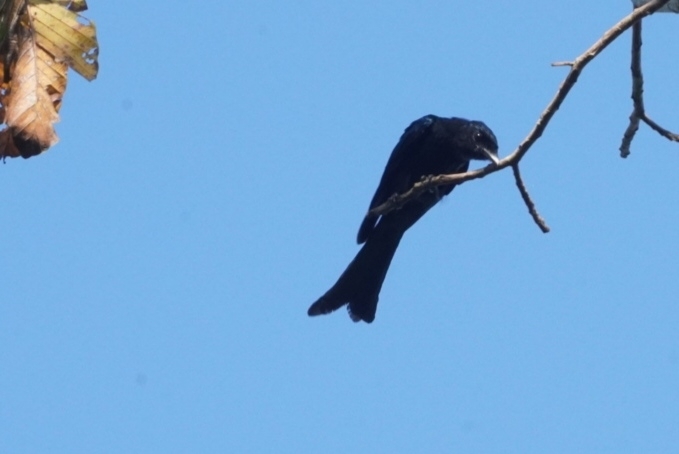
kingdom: Animalia
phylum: Chordata
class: Aves
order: Passeriformes
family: Dicruridae
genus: Dicrurus
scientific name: Dicrurus aeneus
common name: Bronzed drongo
